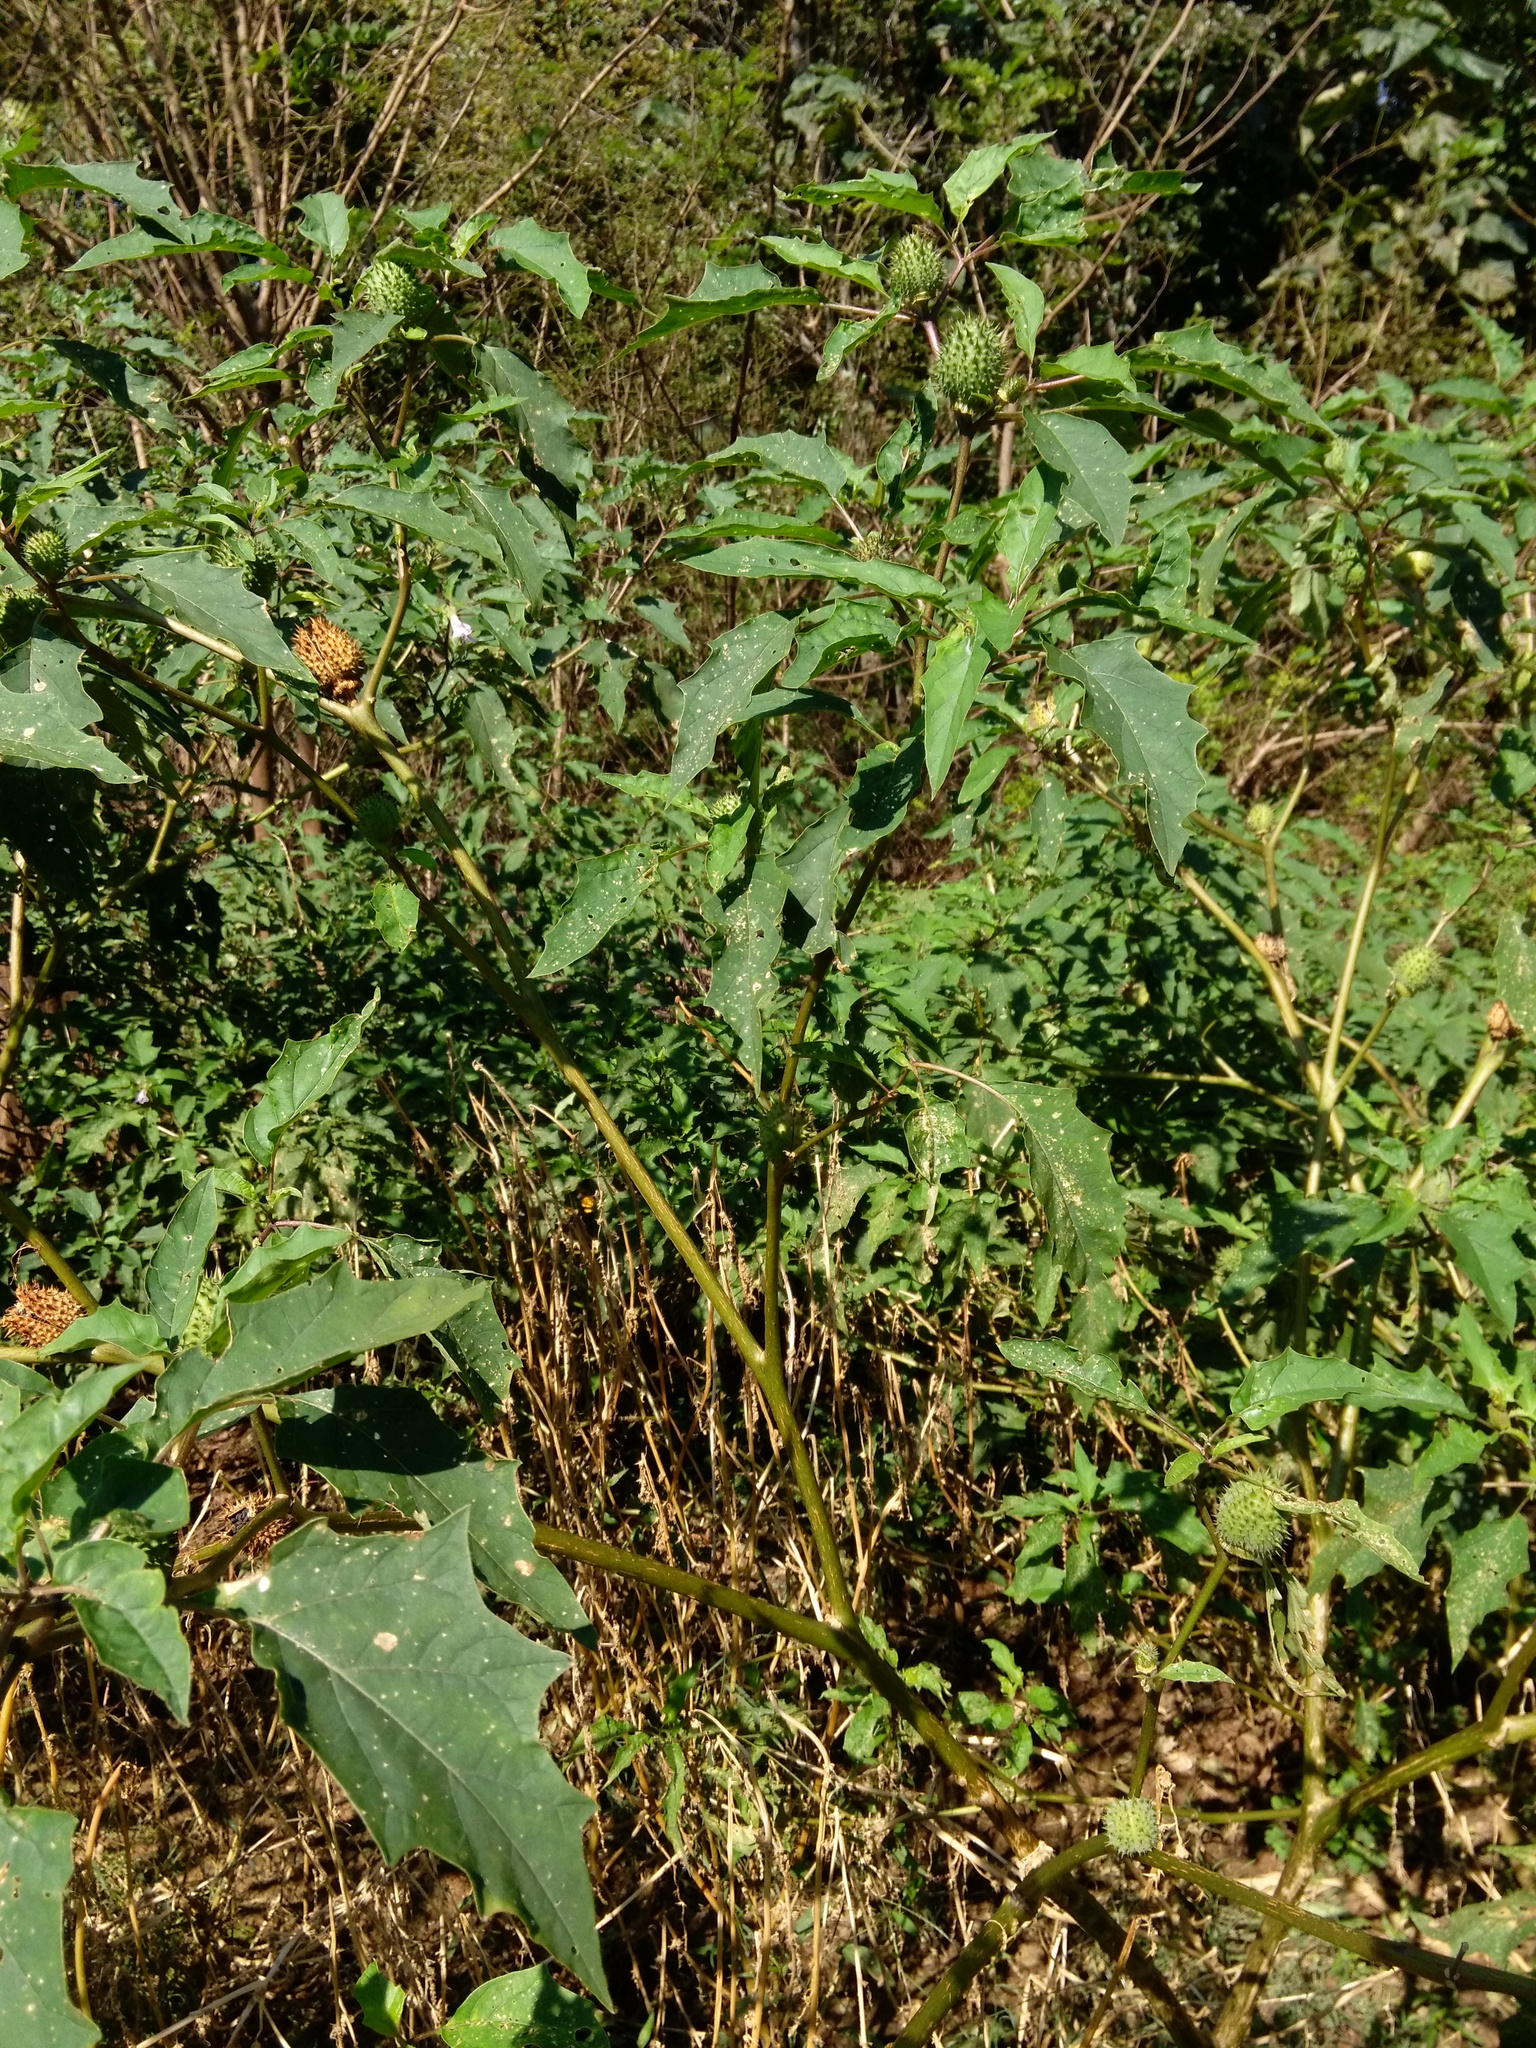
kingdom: Plantae
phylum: Tracheophyta
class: Magnoliopsida
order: Solanales
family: Solanaceae
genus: Datura
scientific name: Datura stramonium
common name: Thorn-apple
